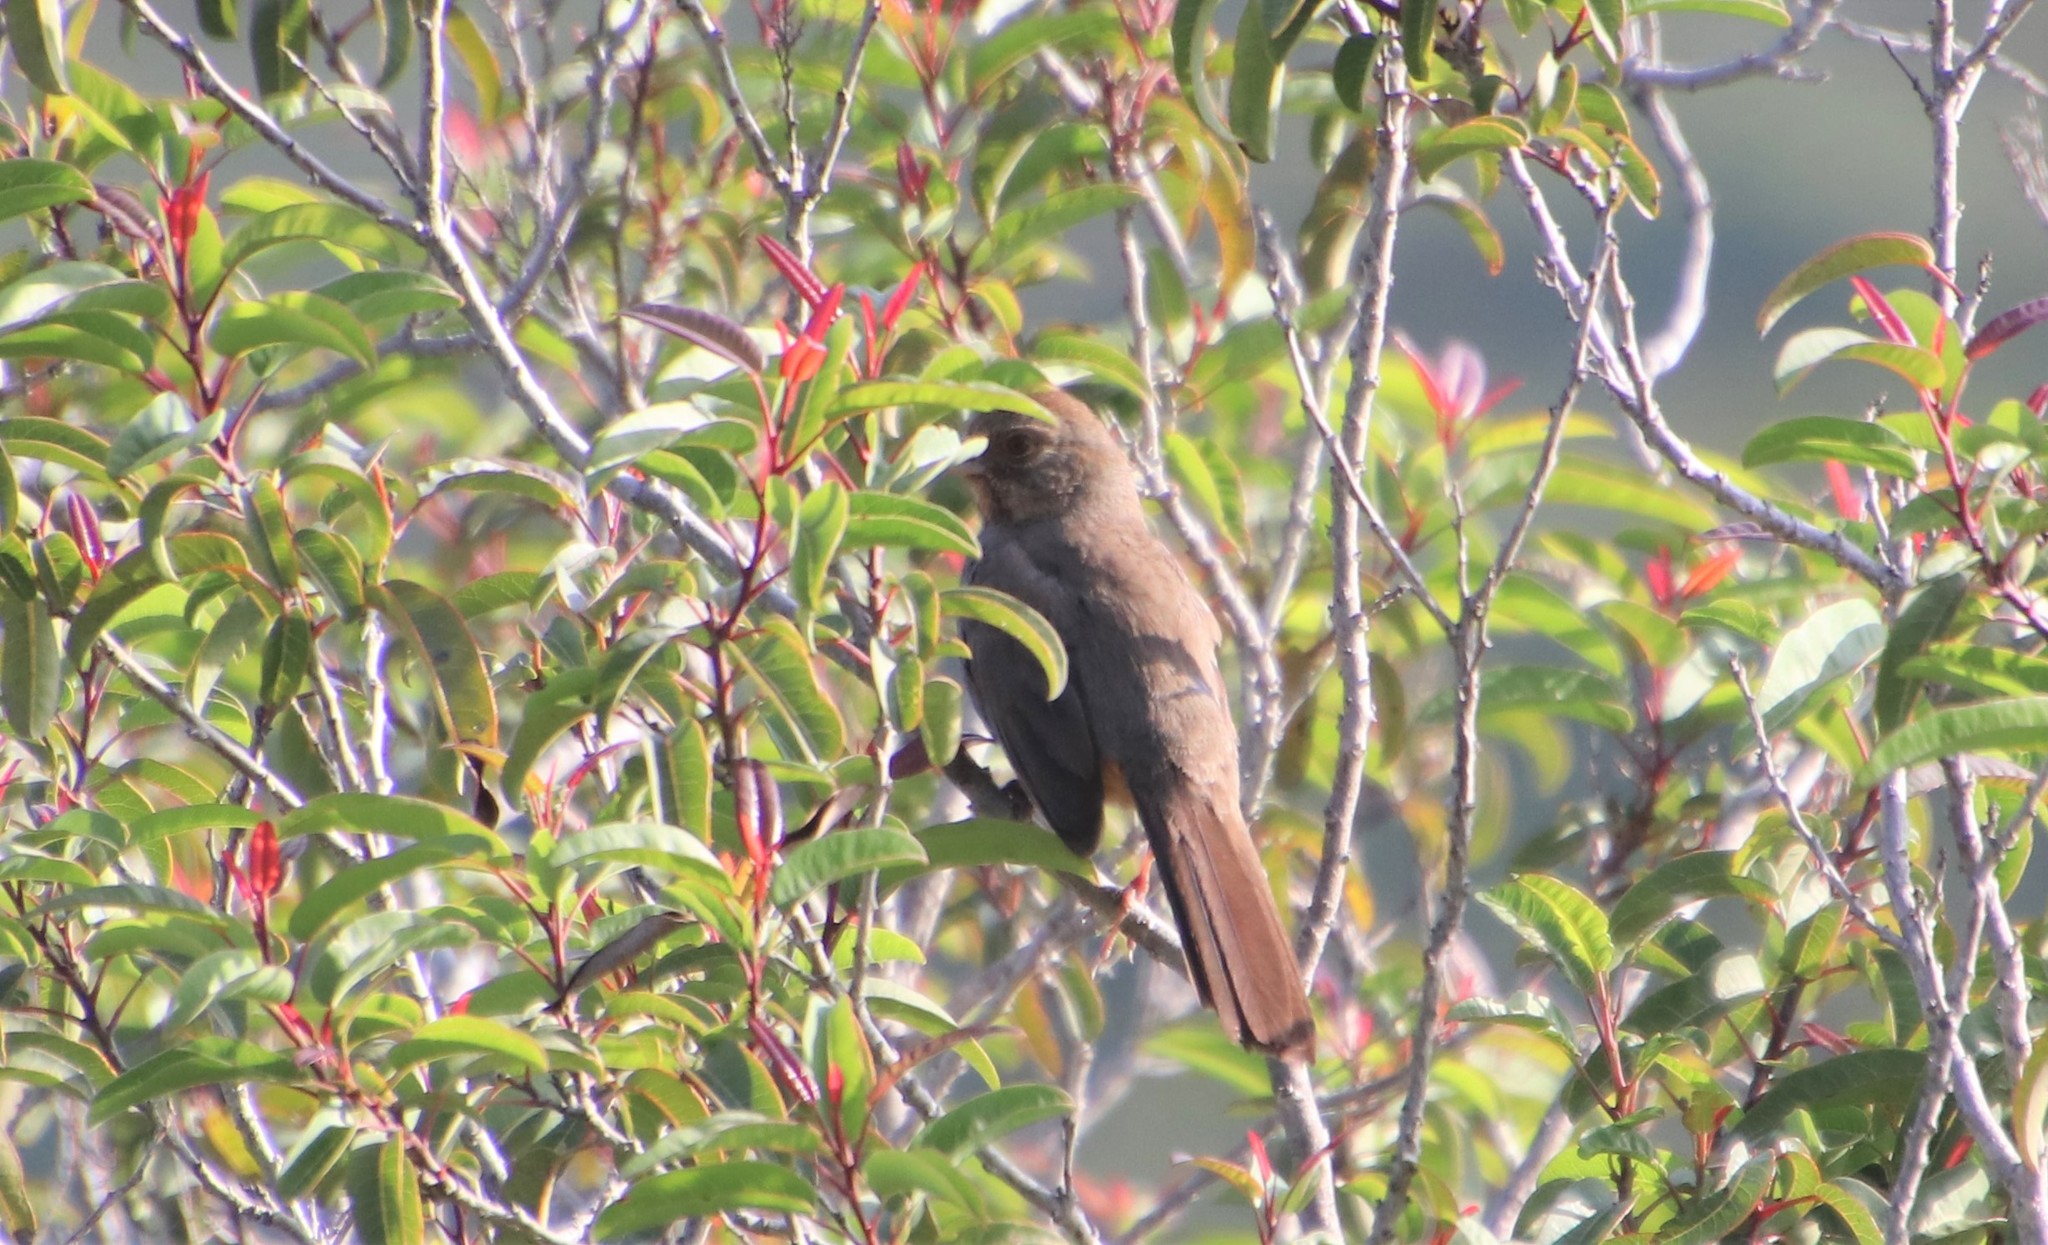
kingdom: Animalia
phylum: Chordata
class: Aves
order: Passeriformes
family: Passerellidae
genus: Melozone
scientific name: Melozone crissalis
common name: California towhee
